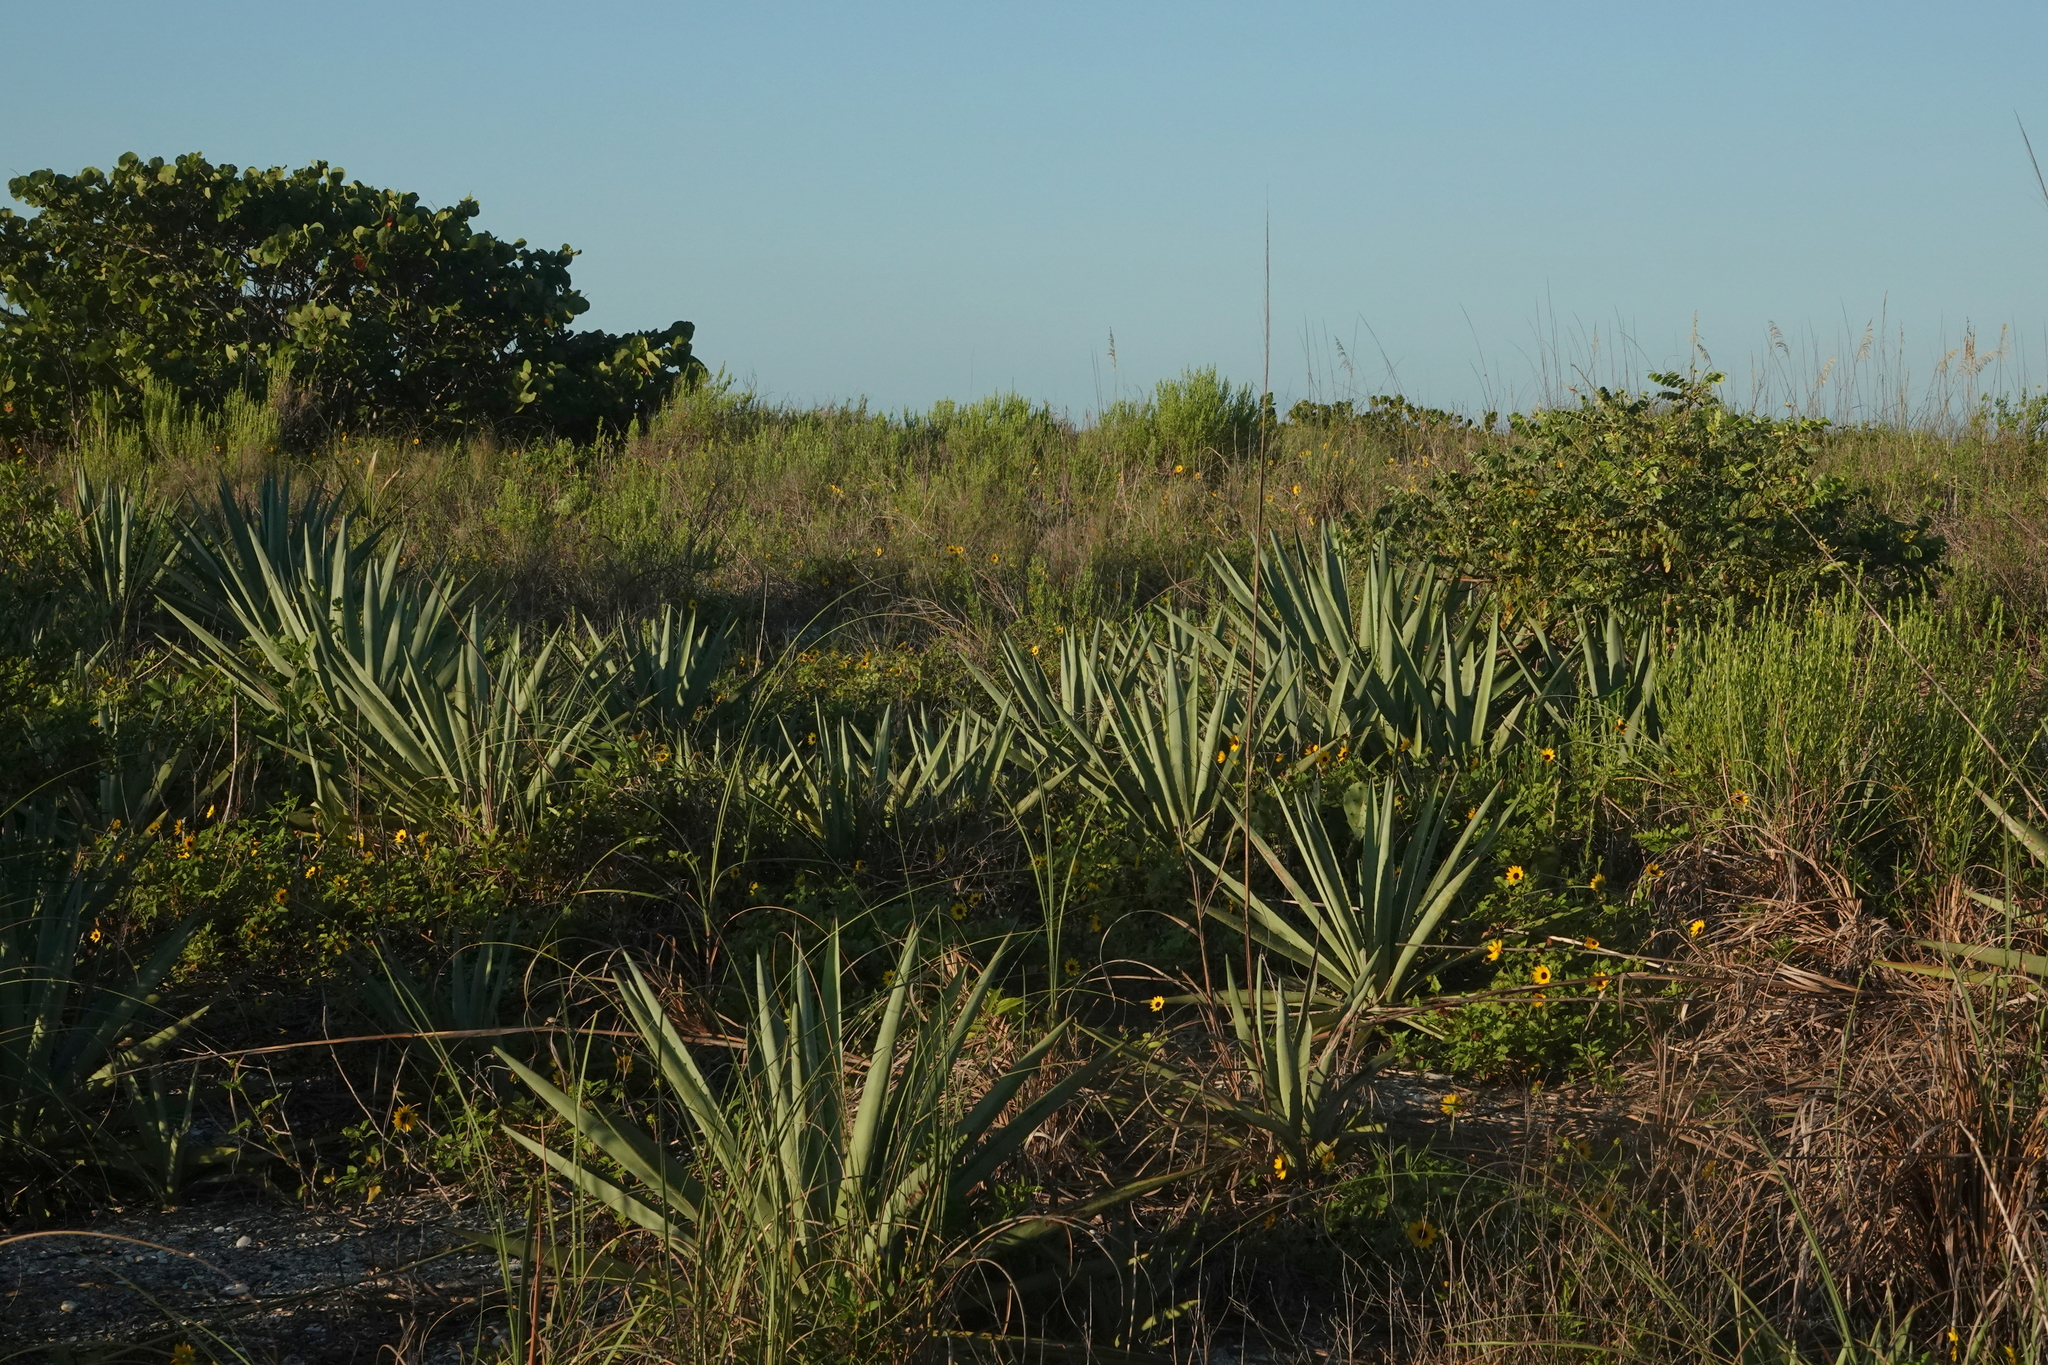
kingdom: Plantae
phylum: Tracheophyta
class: Liliopsida
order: Asparagales
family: Asparagaceae
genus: Agave
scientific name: Agave sisalana
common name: Sisal hemp
